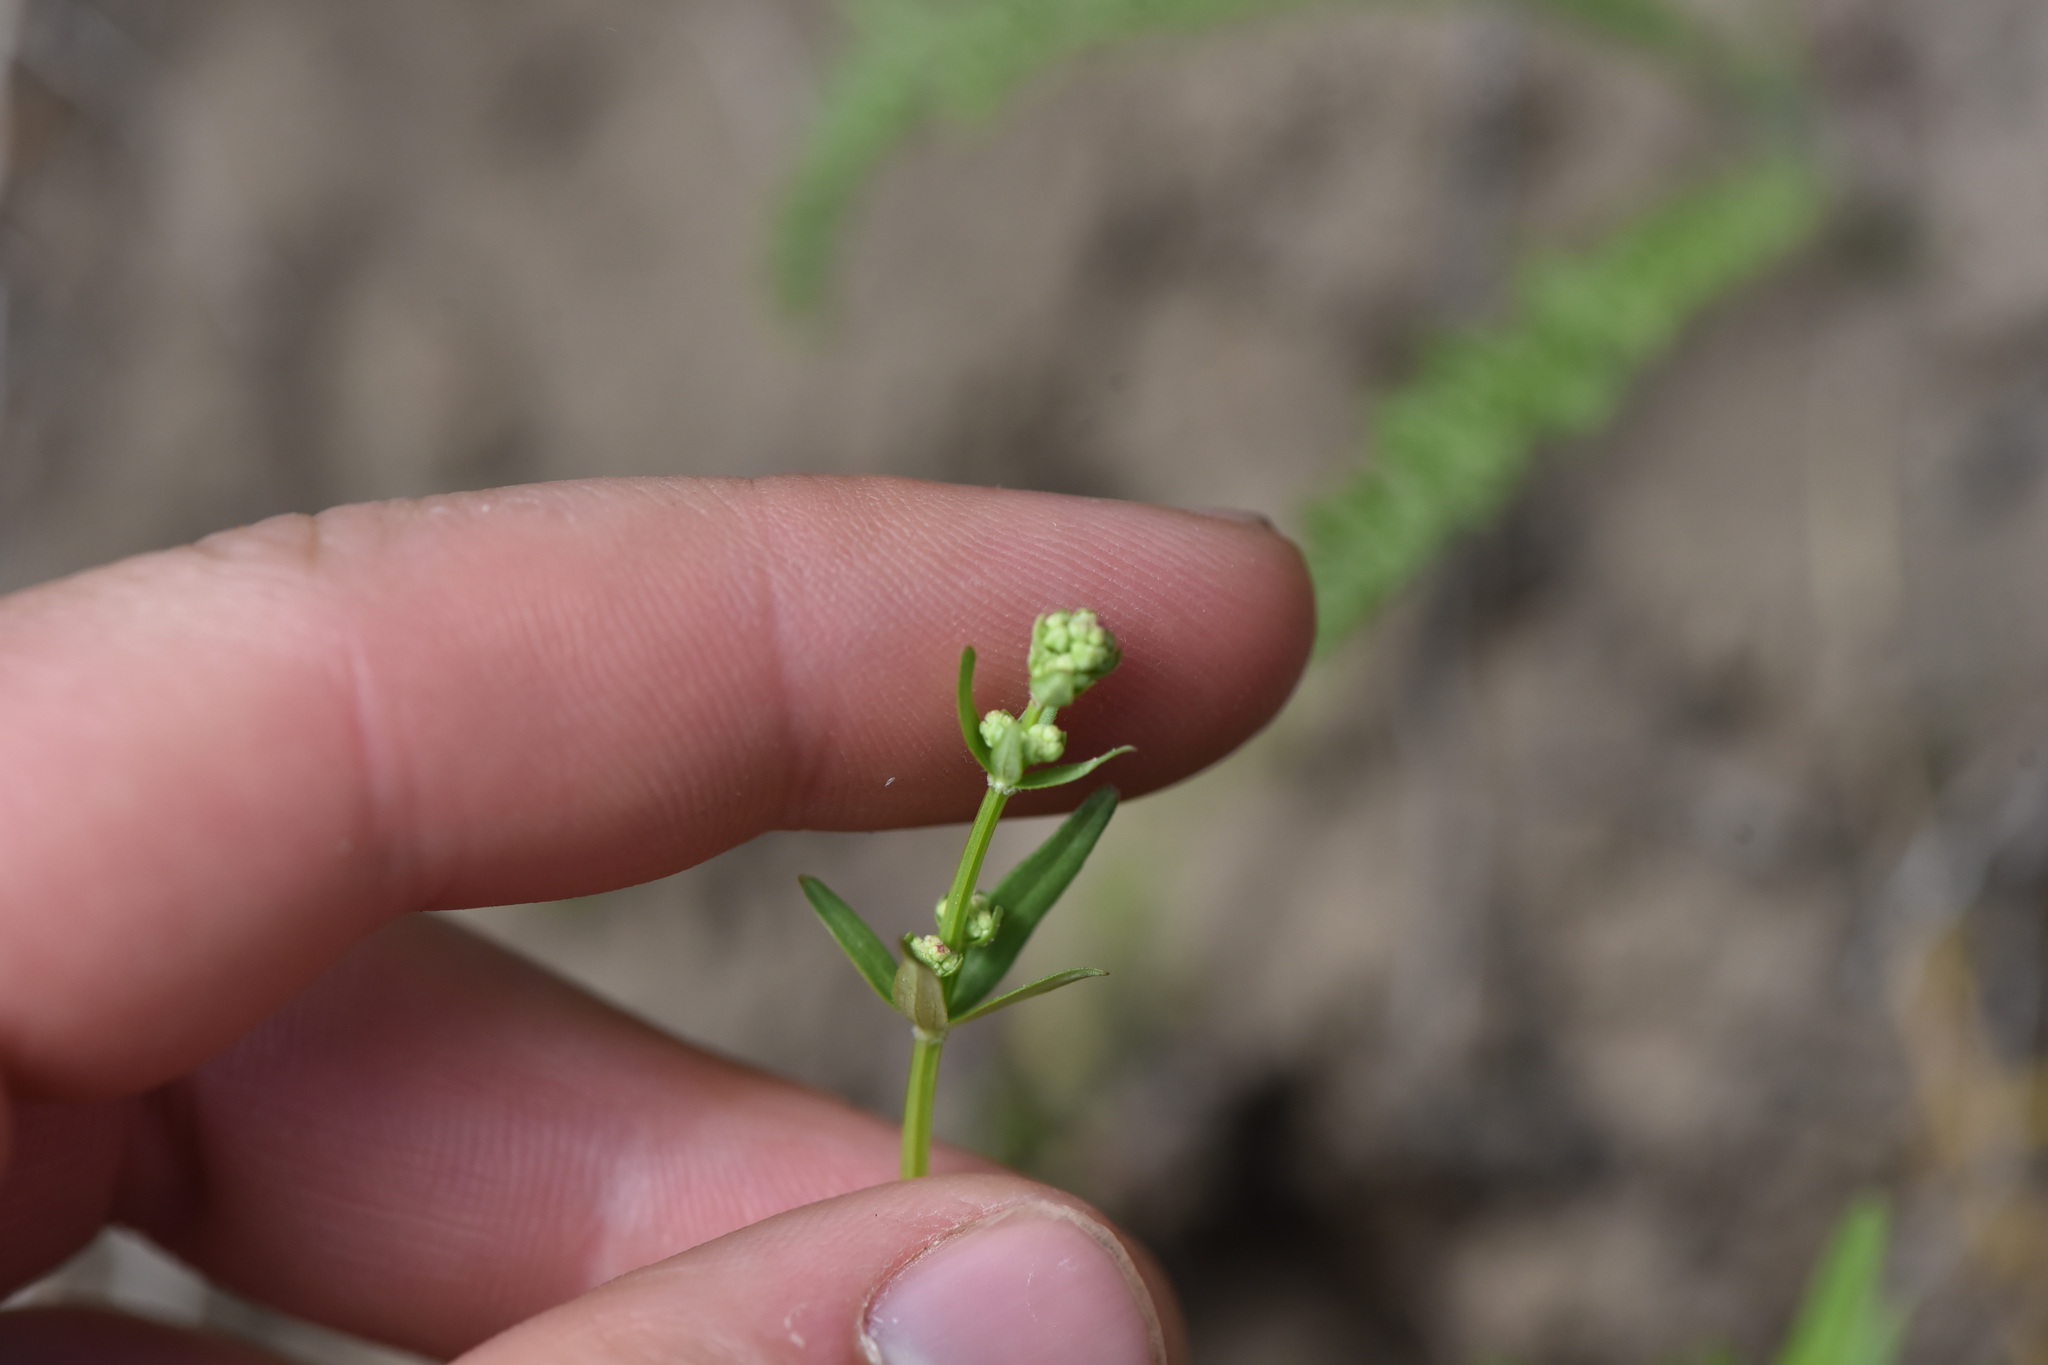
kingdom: Plantae
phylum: Tracheophyta
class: Magnoliopsida
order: Gentianales
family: Rubiaceae
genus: Galium
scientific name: Galium boreale
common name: Northern bedstraw
